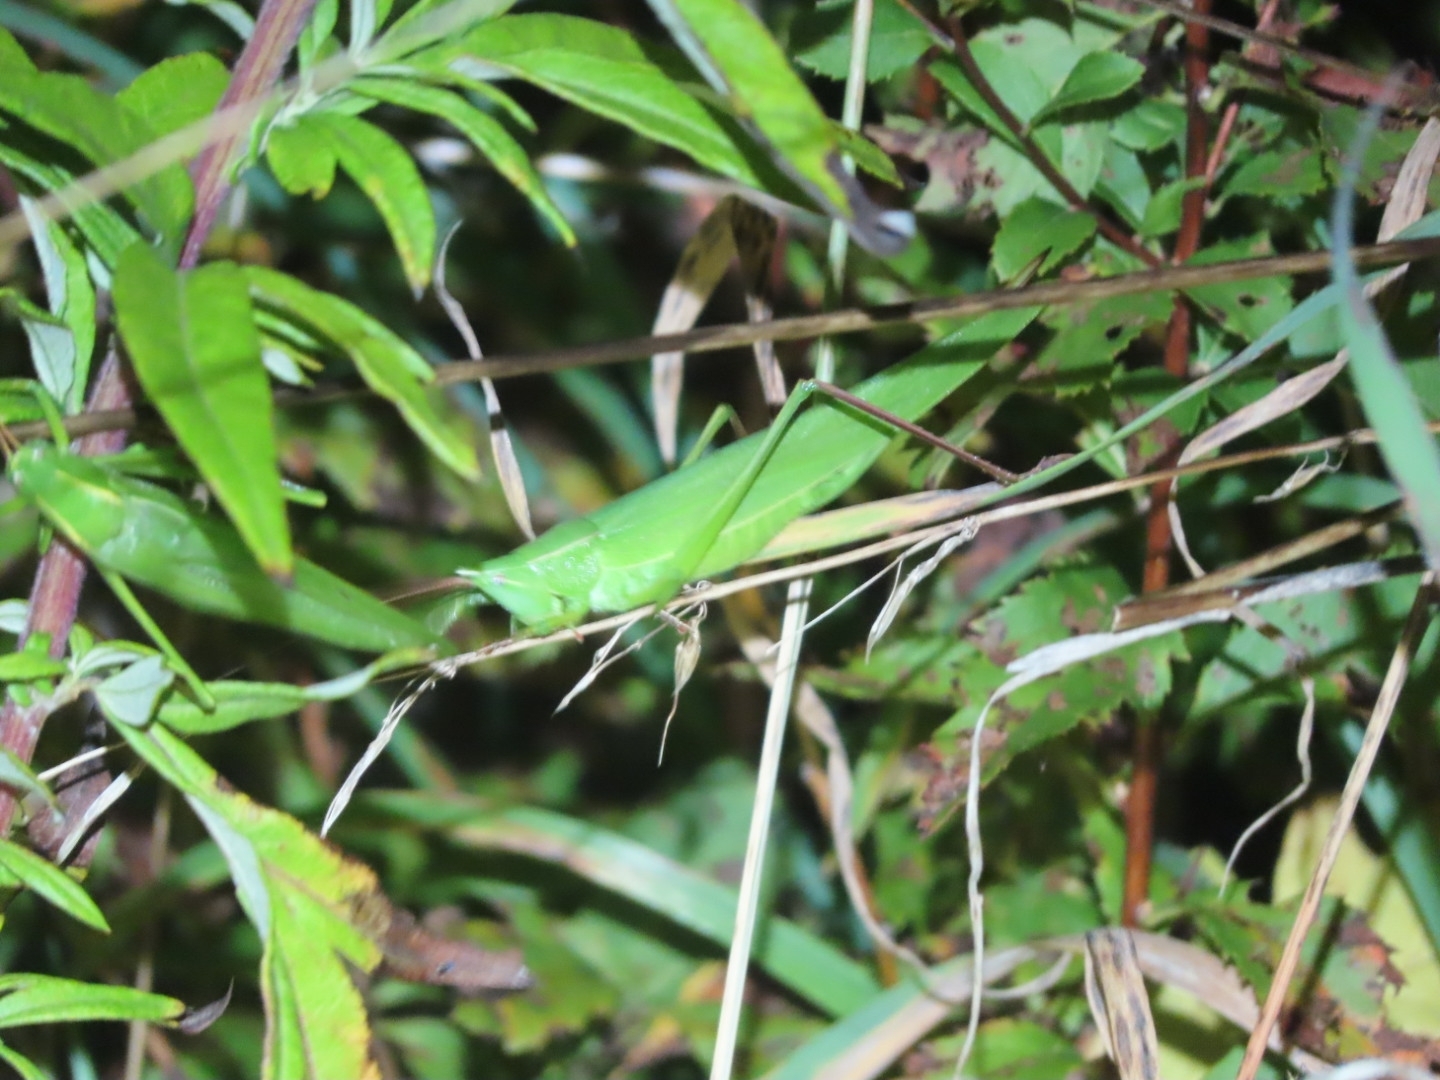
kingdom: Animalia
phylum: Arthropoda
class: Insecta
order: Orthoptera
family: Tettigoniidae
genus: Neoconocephalus
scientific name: Neoconocephalus ensiger
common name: Swordbearer
